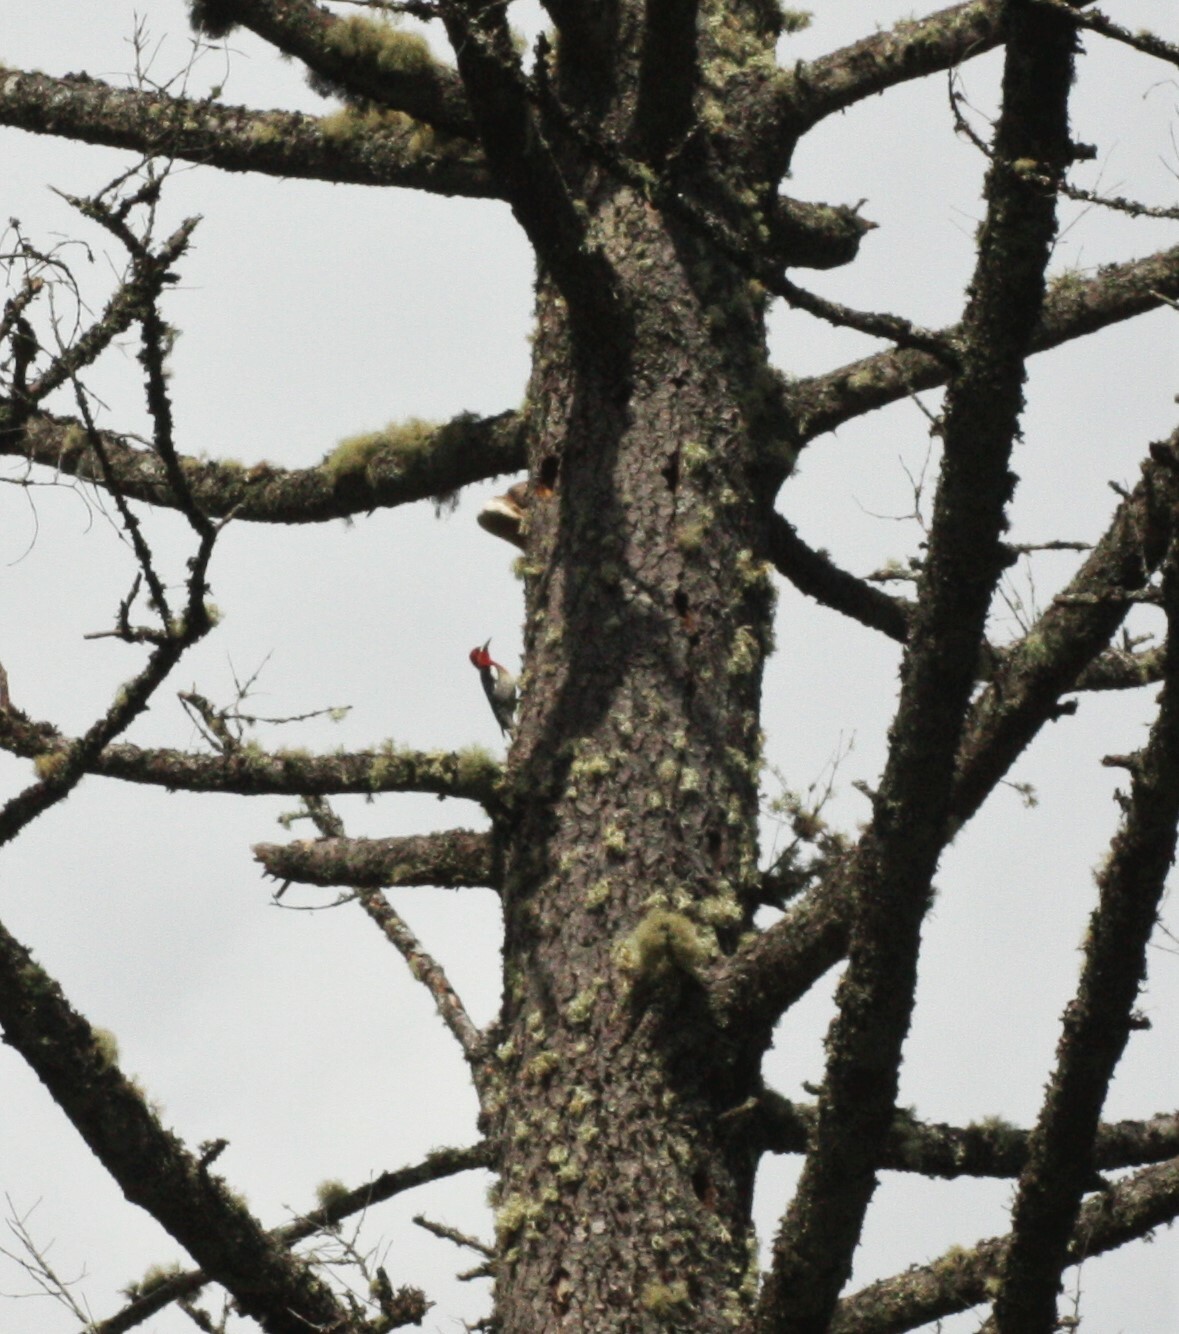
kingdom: Animalia
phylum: Chordata
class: Aves
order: Piciformes
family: Picidae
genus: Sphyrapicus
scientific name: Sphyrapicus ruber
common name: Red-breasted sapsucker
